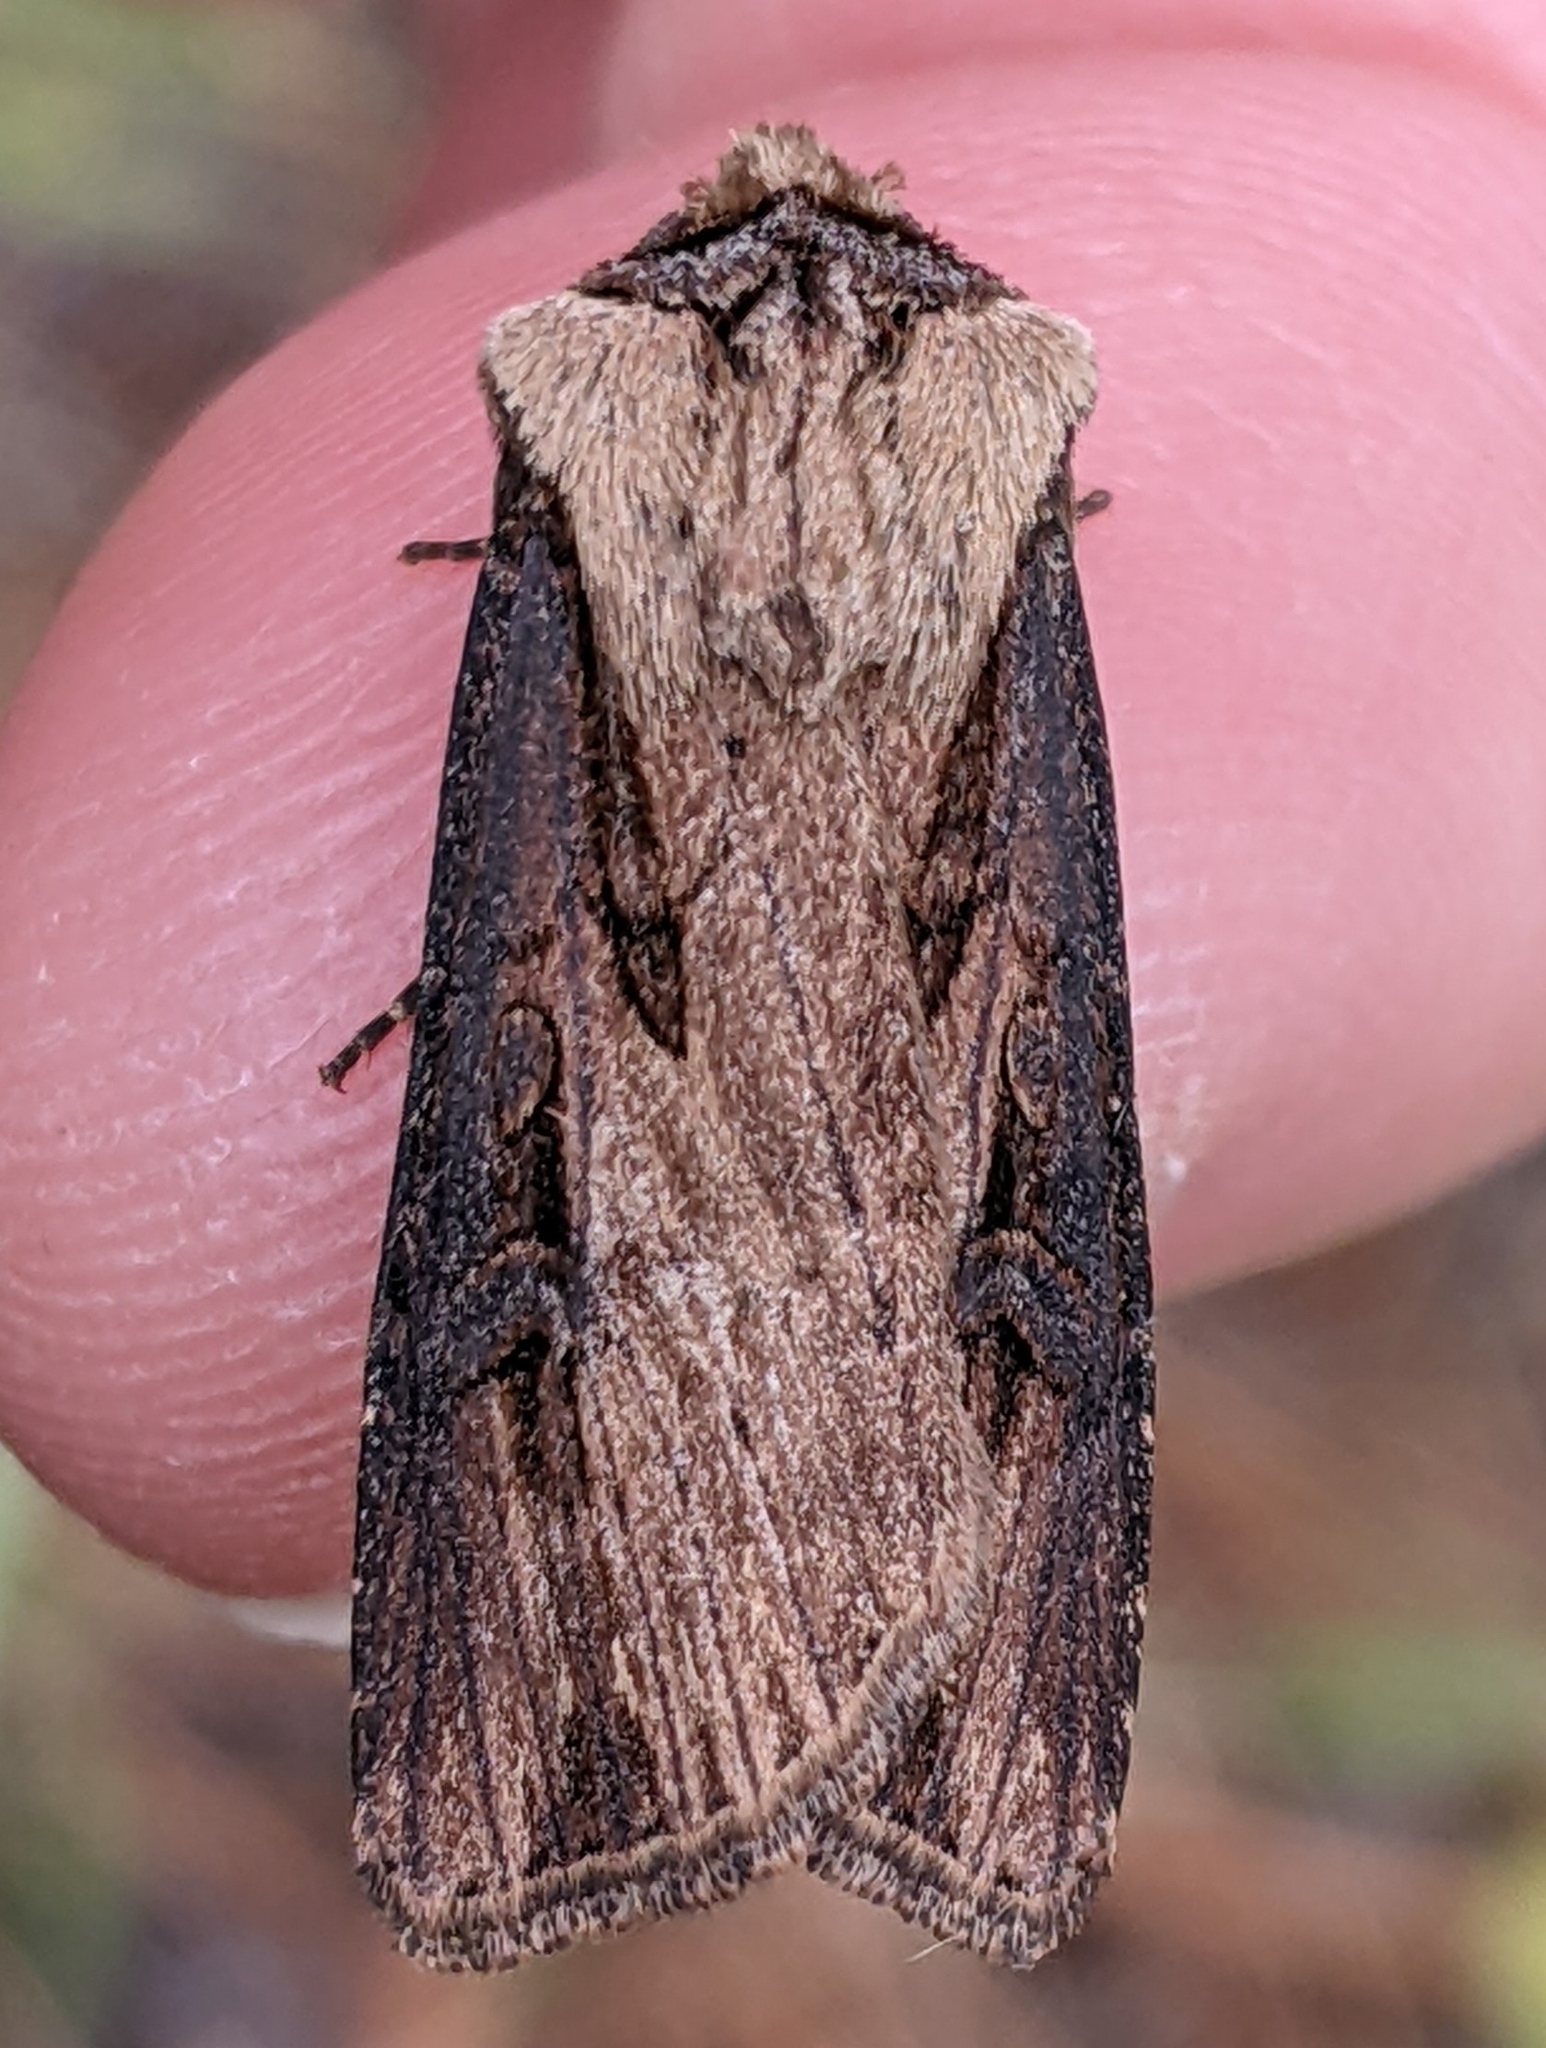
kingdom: Animalia
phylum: Arthropoda
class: Insecta
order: Lepidoptera
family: Noctuidae
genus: Agrotis
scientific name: Agrotis antica
